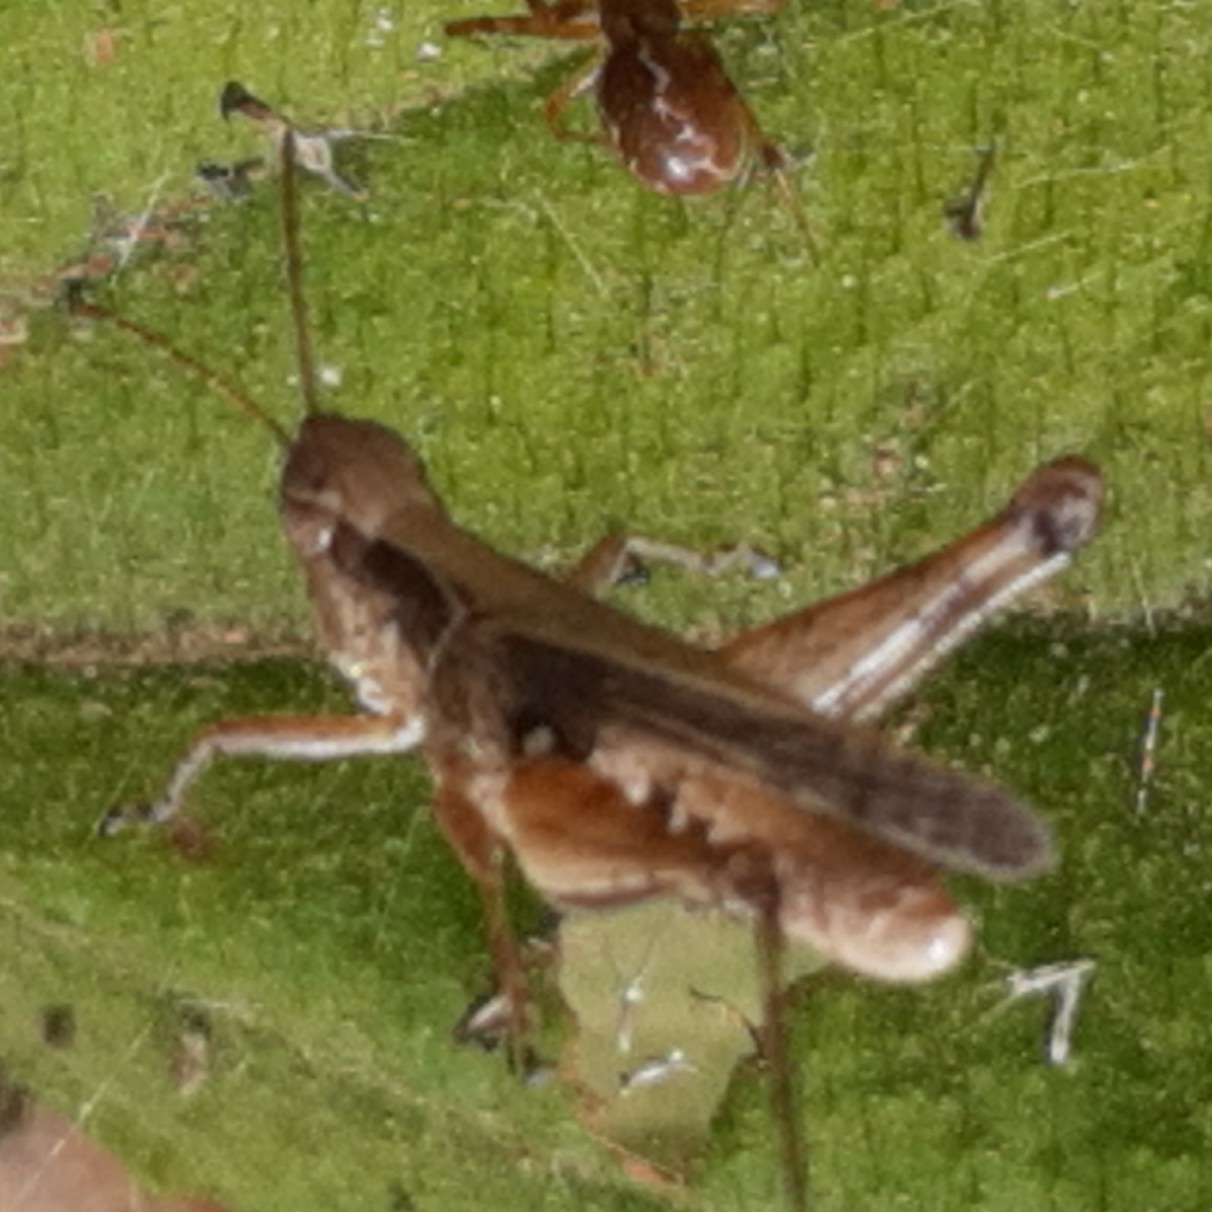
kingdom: Animalia
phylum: Arthropoda
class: Insecta
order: Orthoptera
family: Acrididae
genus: Orphulella
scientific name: Orphulella punctata
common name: Slant-faced grasshopper
